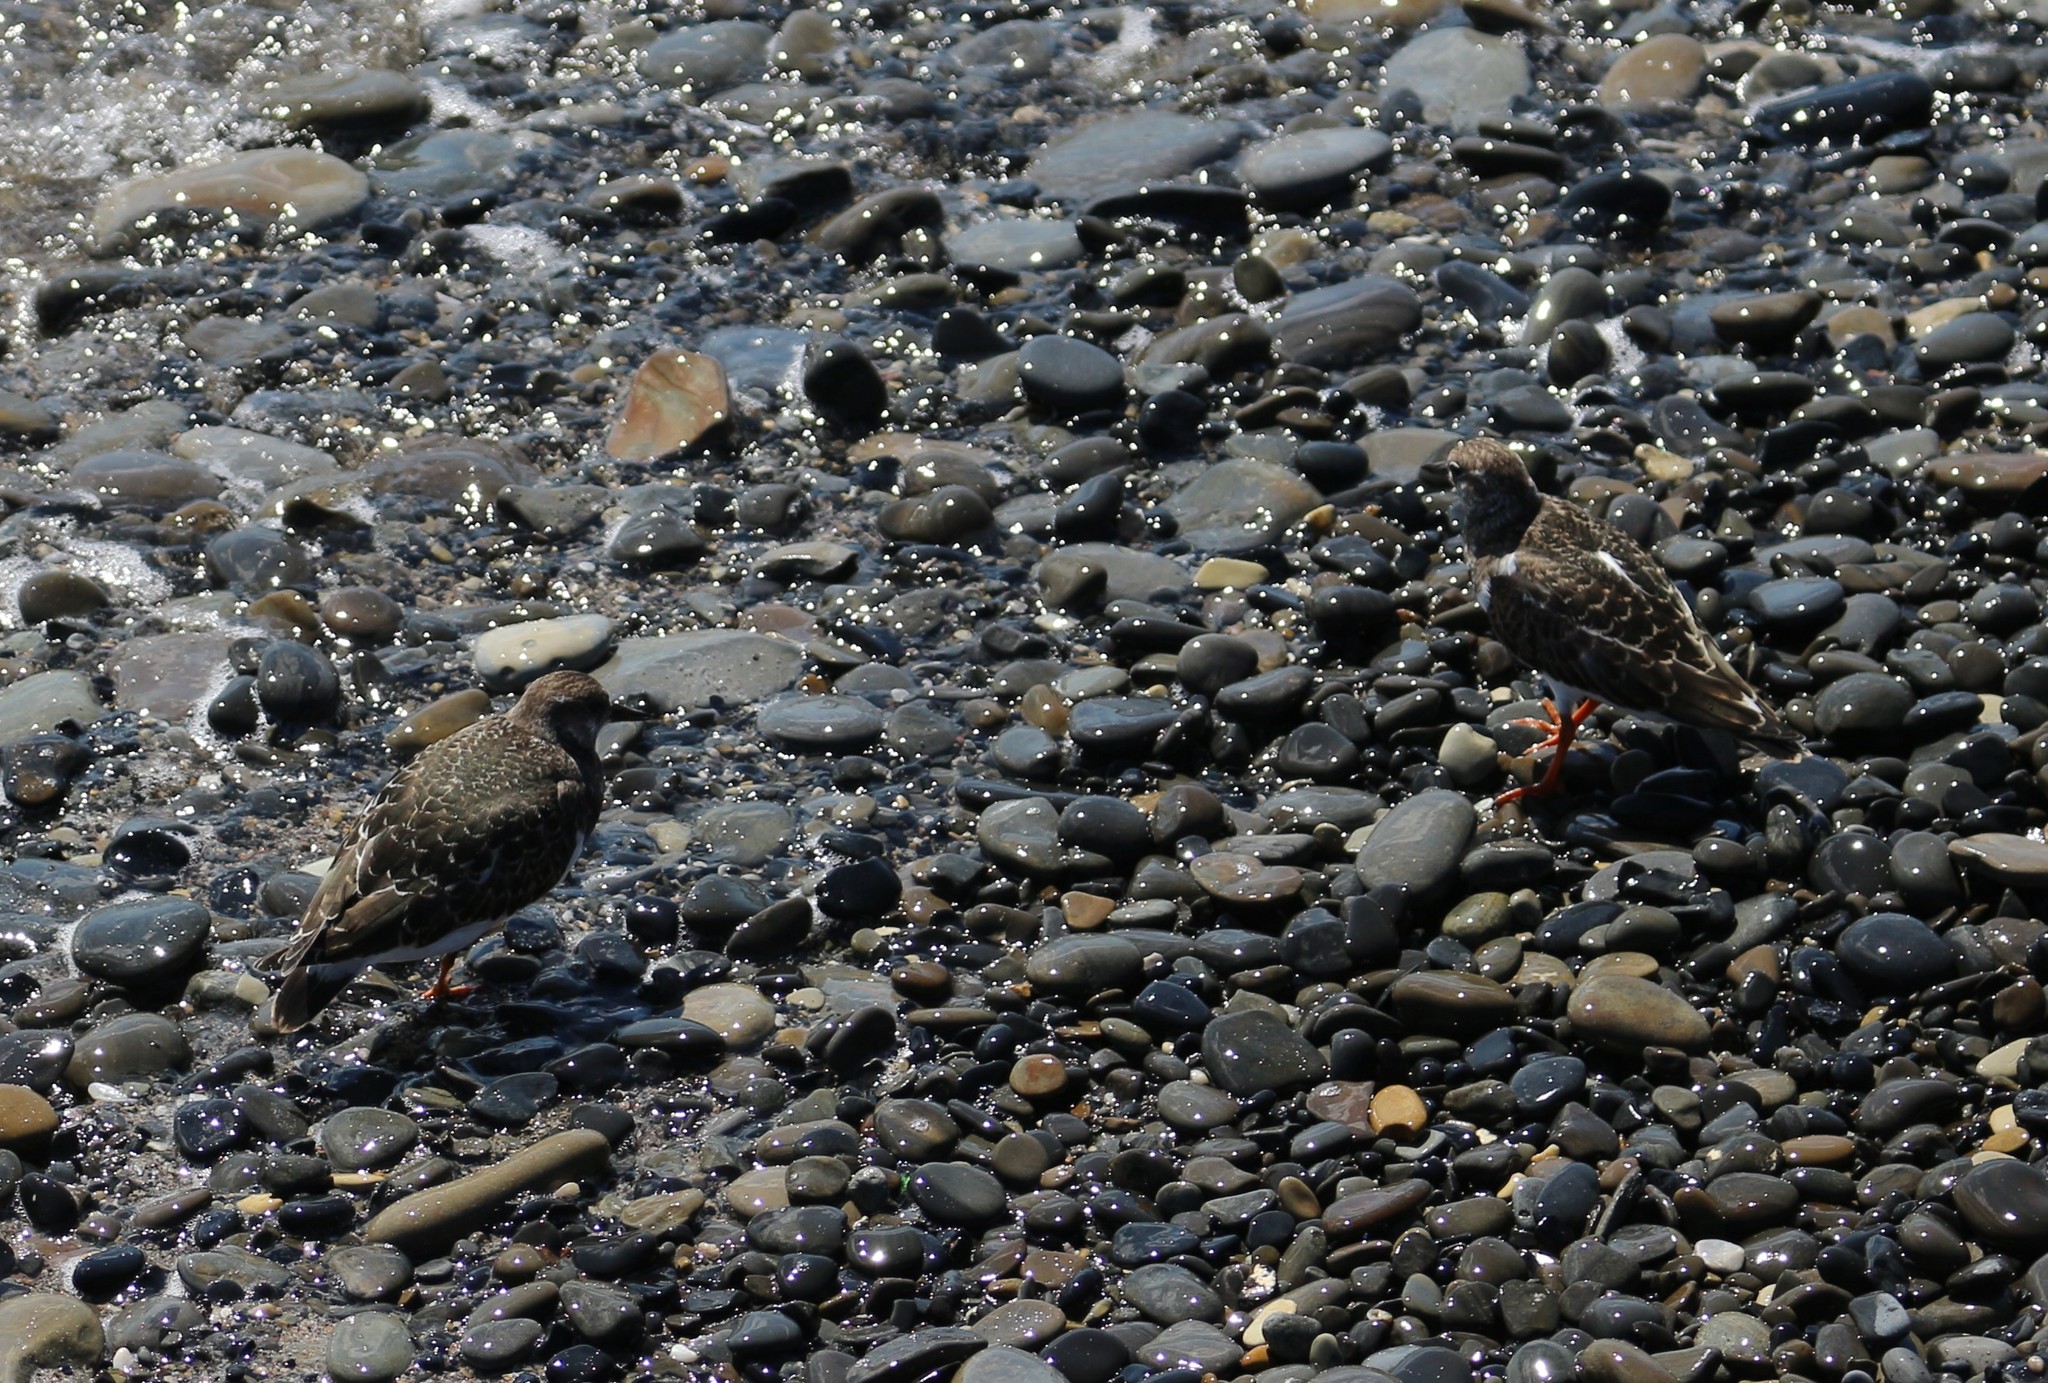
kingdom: Animalia
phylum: Chordata
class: Aves
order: Charadriiformes
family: Scolopacidae
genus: Arenaria
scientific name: Arenaria interpres
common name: Ruddy turnstone
